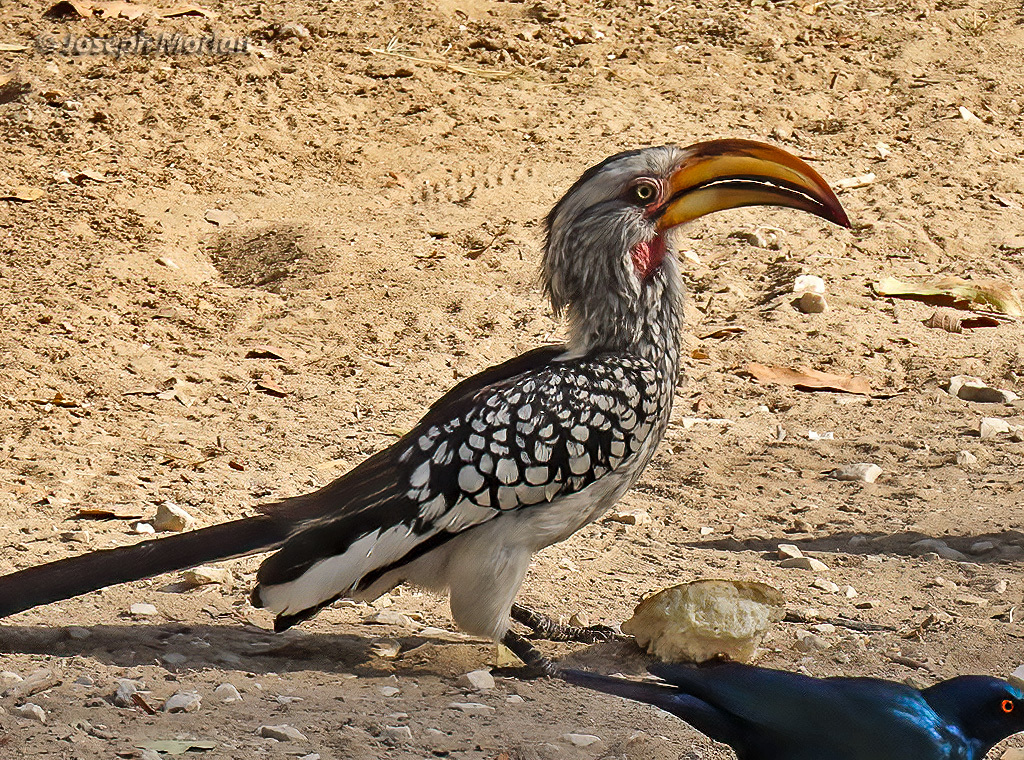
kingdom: Animalia
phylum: Chordata
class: Aves
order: Bucerotiformes
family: Bucerotidae
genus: Tockus
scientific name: Tockus leucomelas
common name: Southern yellow-billed hornbill
